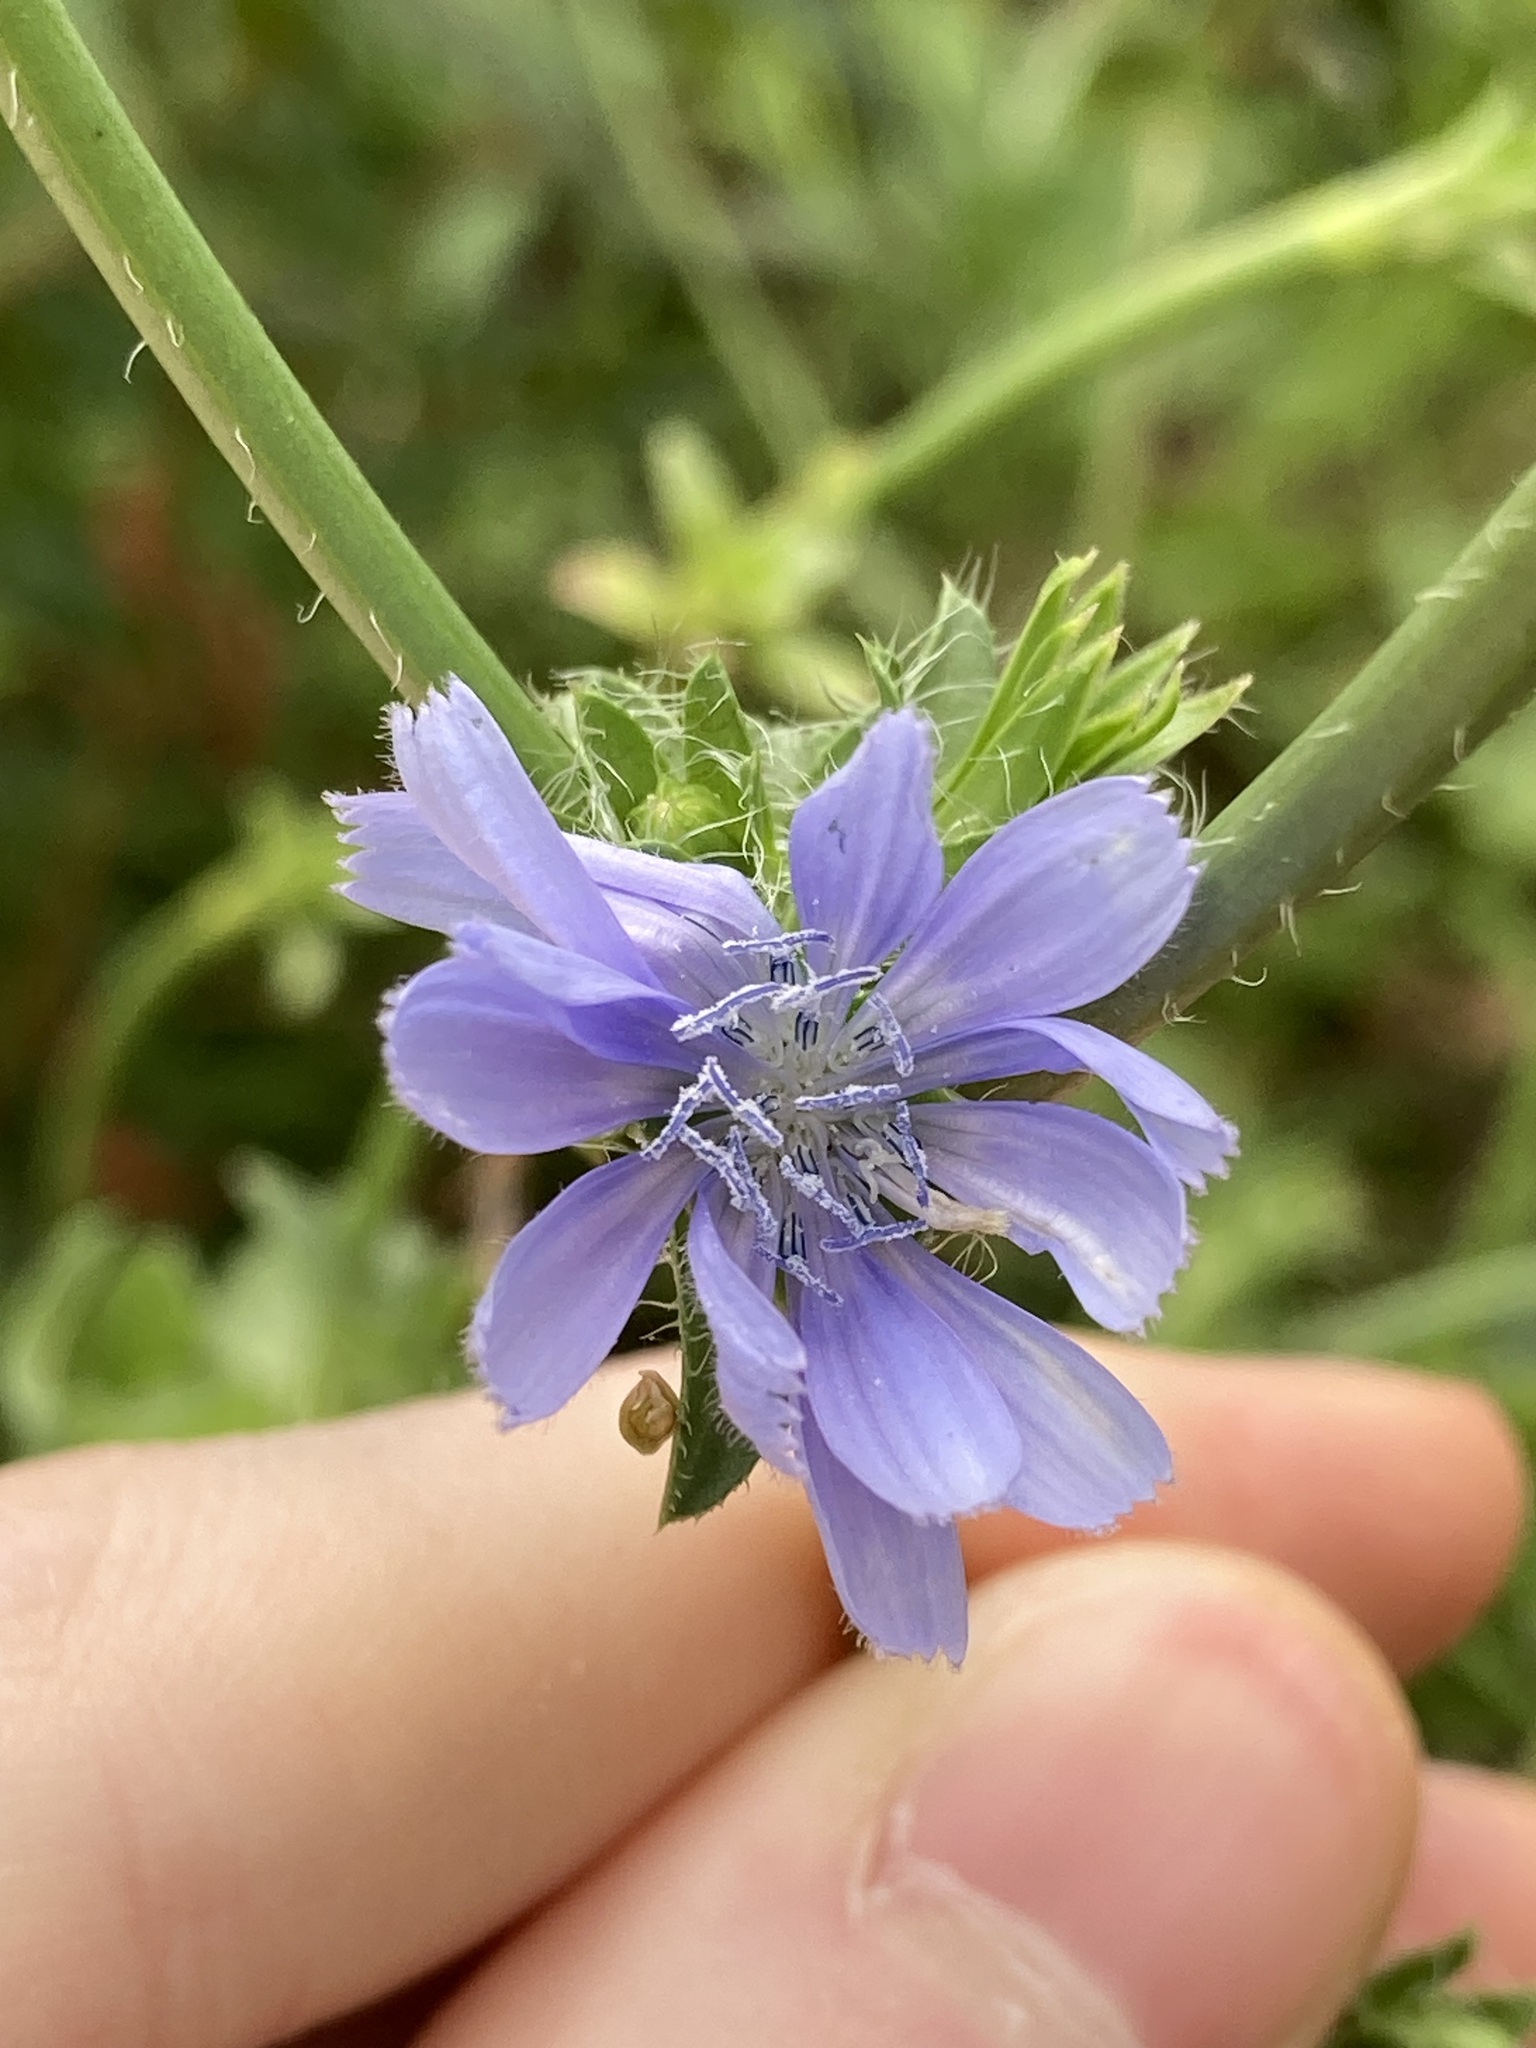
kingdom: Plantae
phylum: Tracheophyta
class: Magnoliopsida
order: Asterales
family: Asteraceae
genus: Cichorium
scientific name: Cichorium intybus
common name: Chicory
